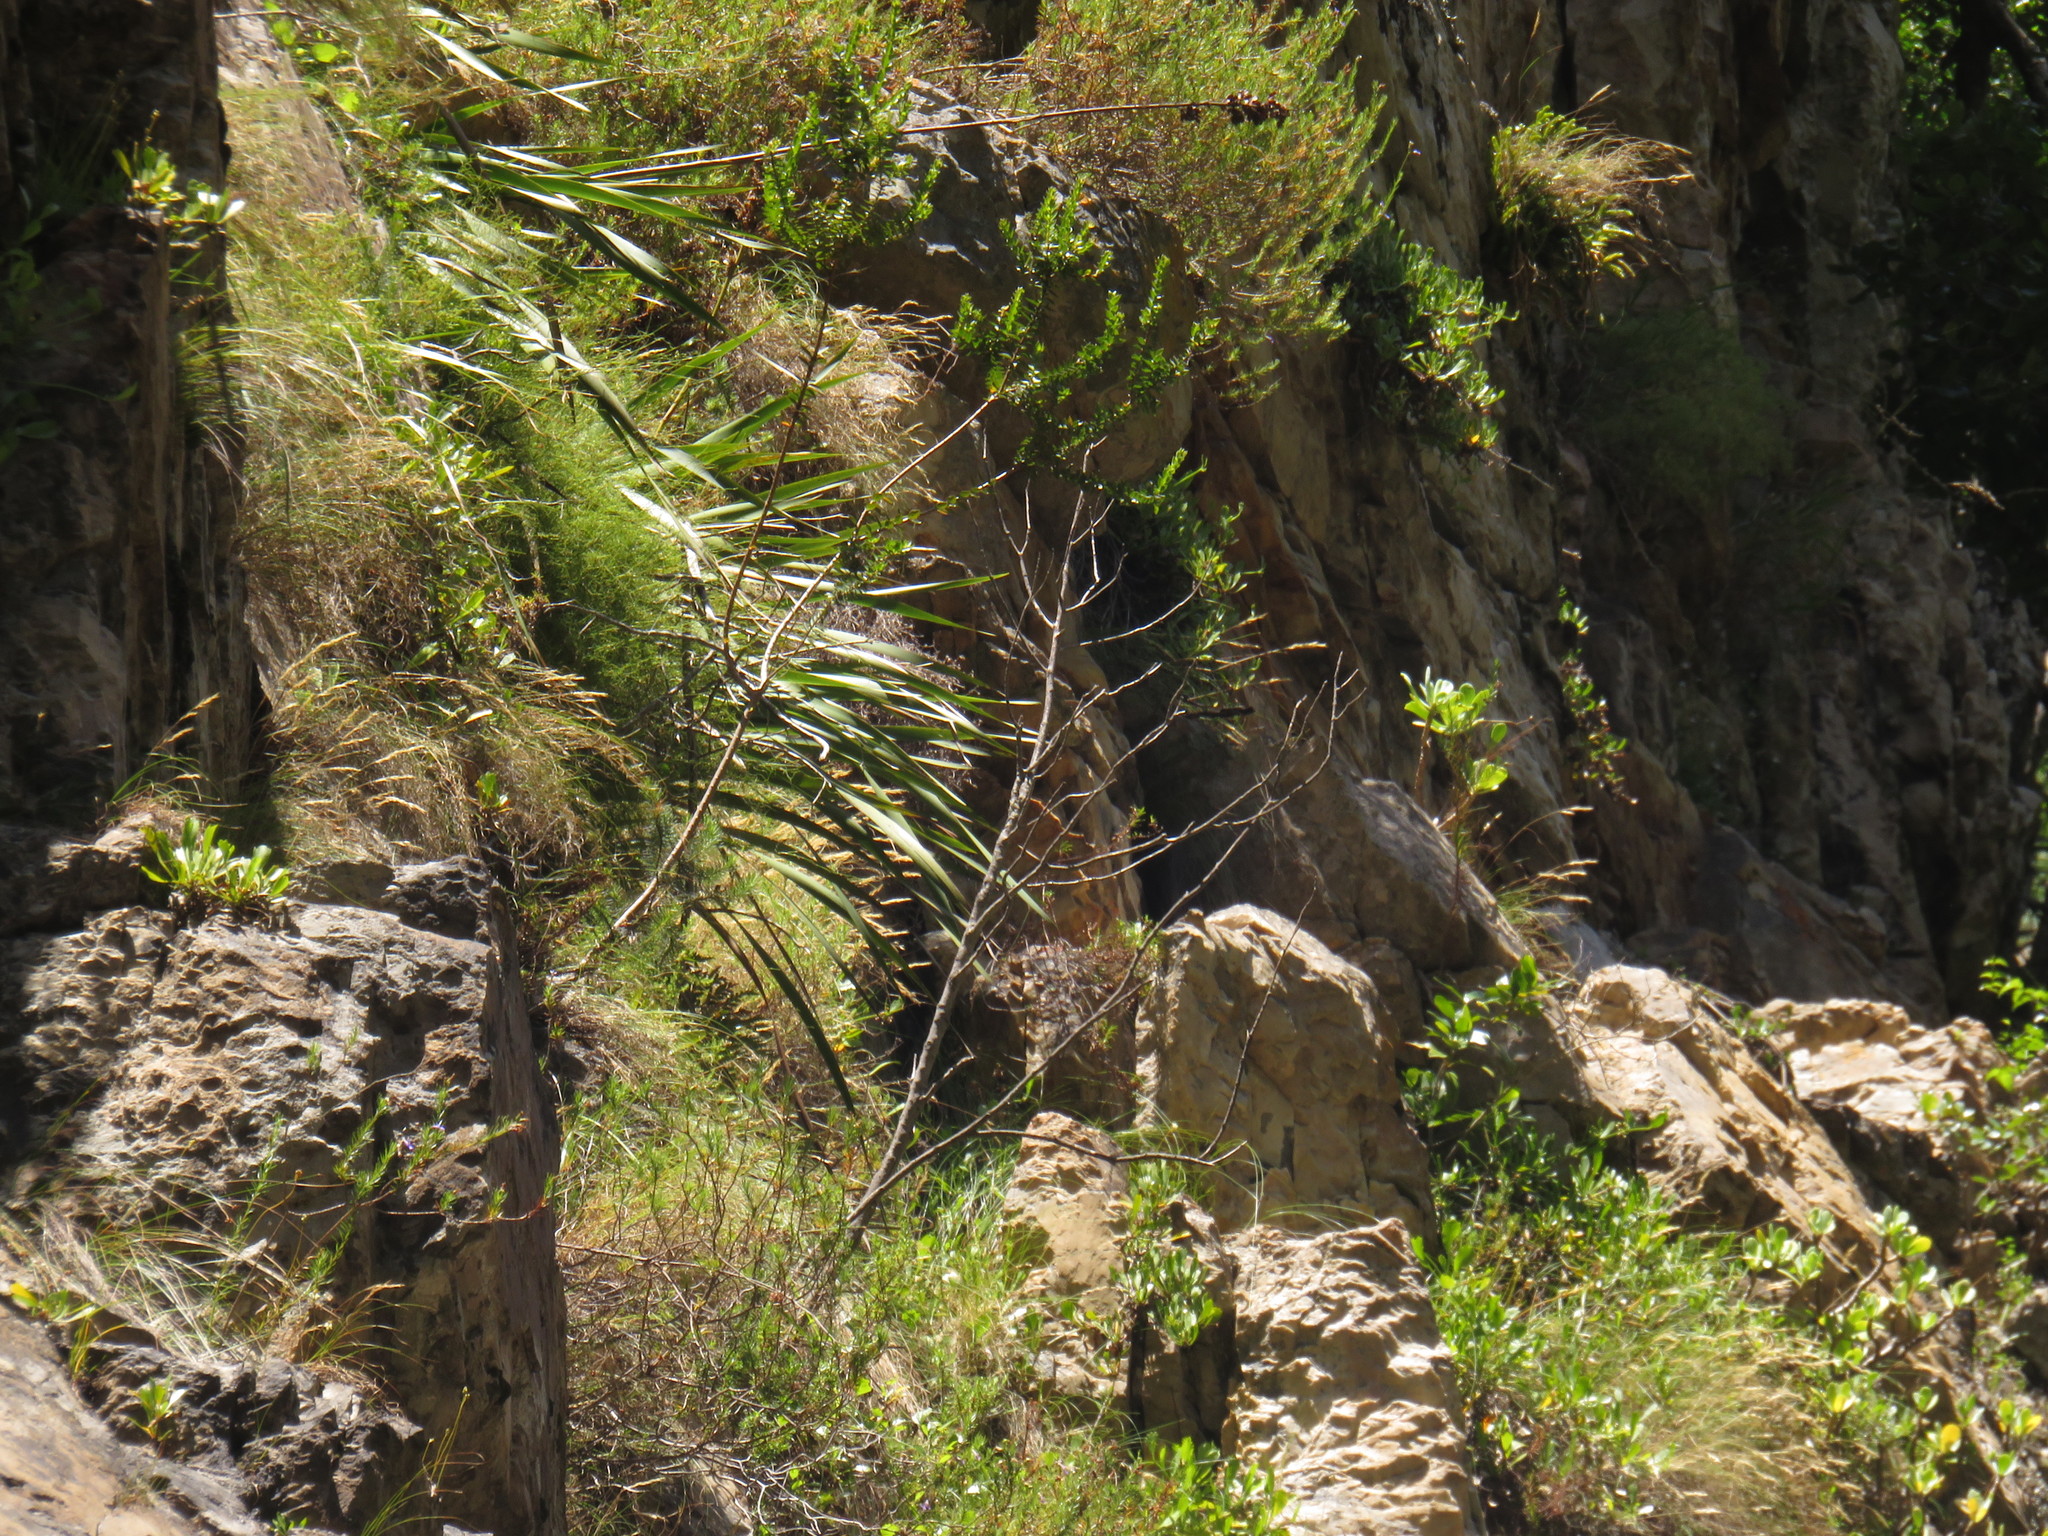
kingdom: Plantae
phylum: Tracheophyta
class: Liliopsida
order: Asparagales
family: Iridaceae
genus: Aristea
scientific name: Aristea capitata
